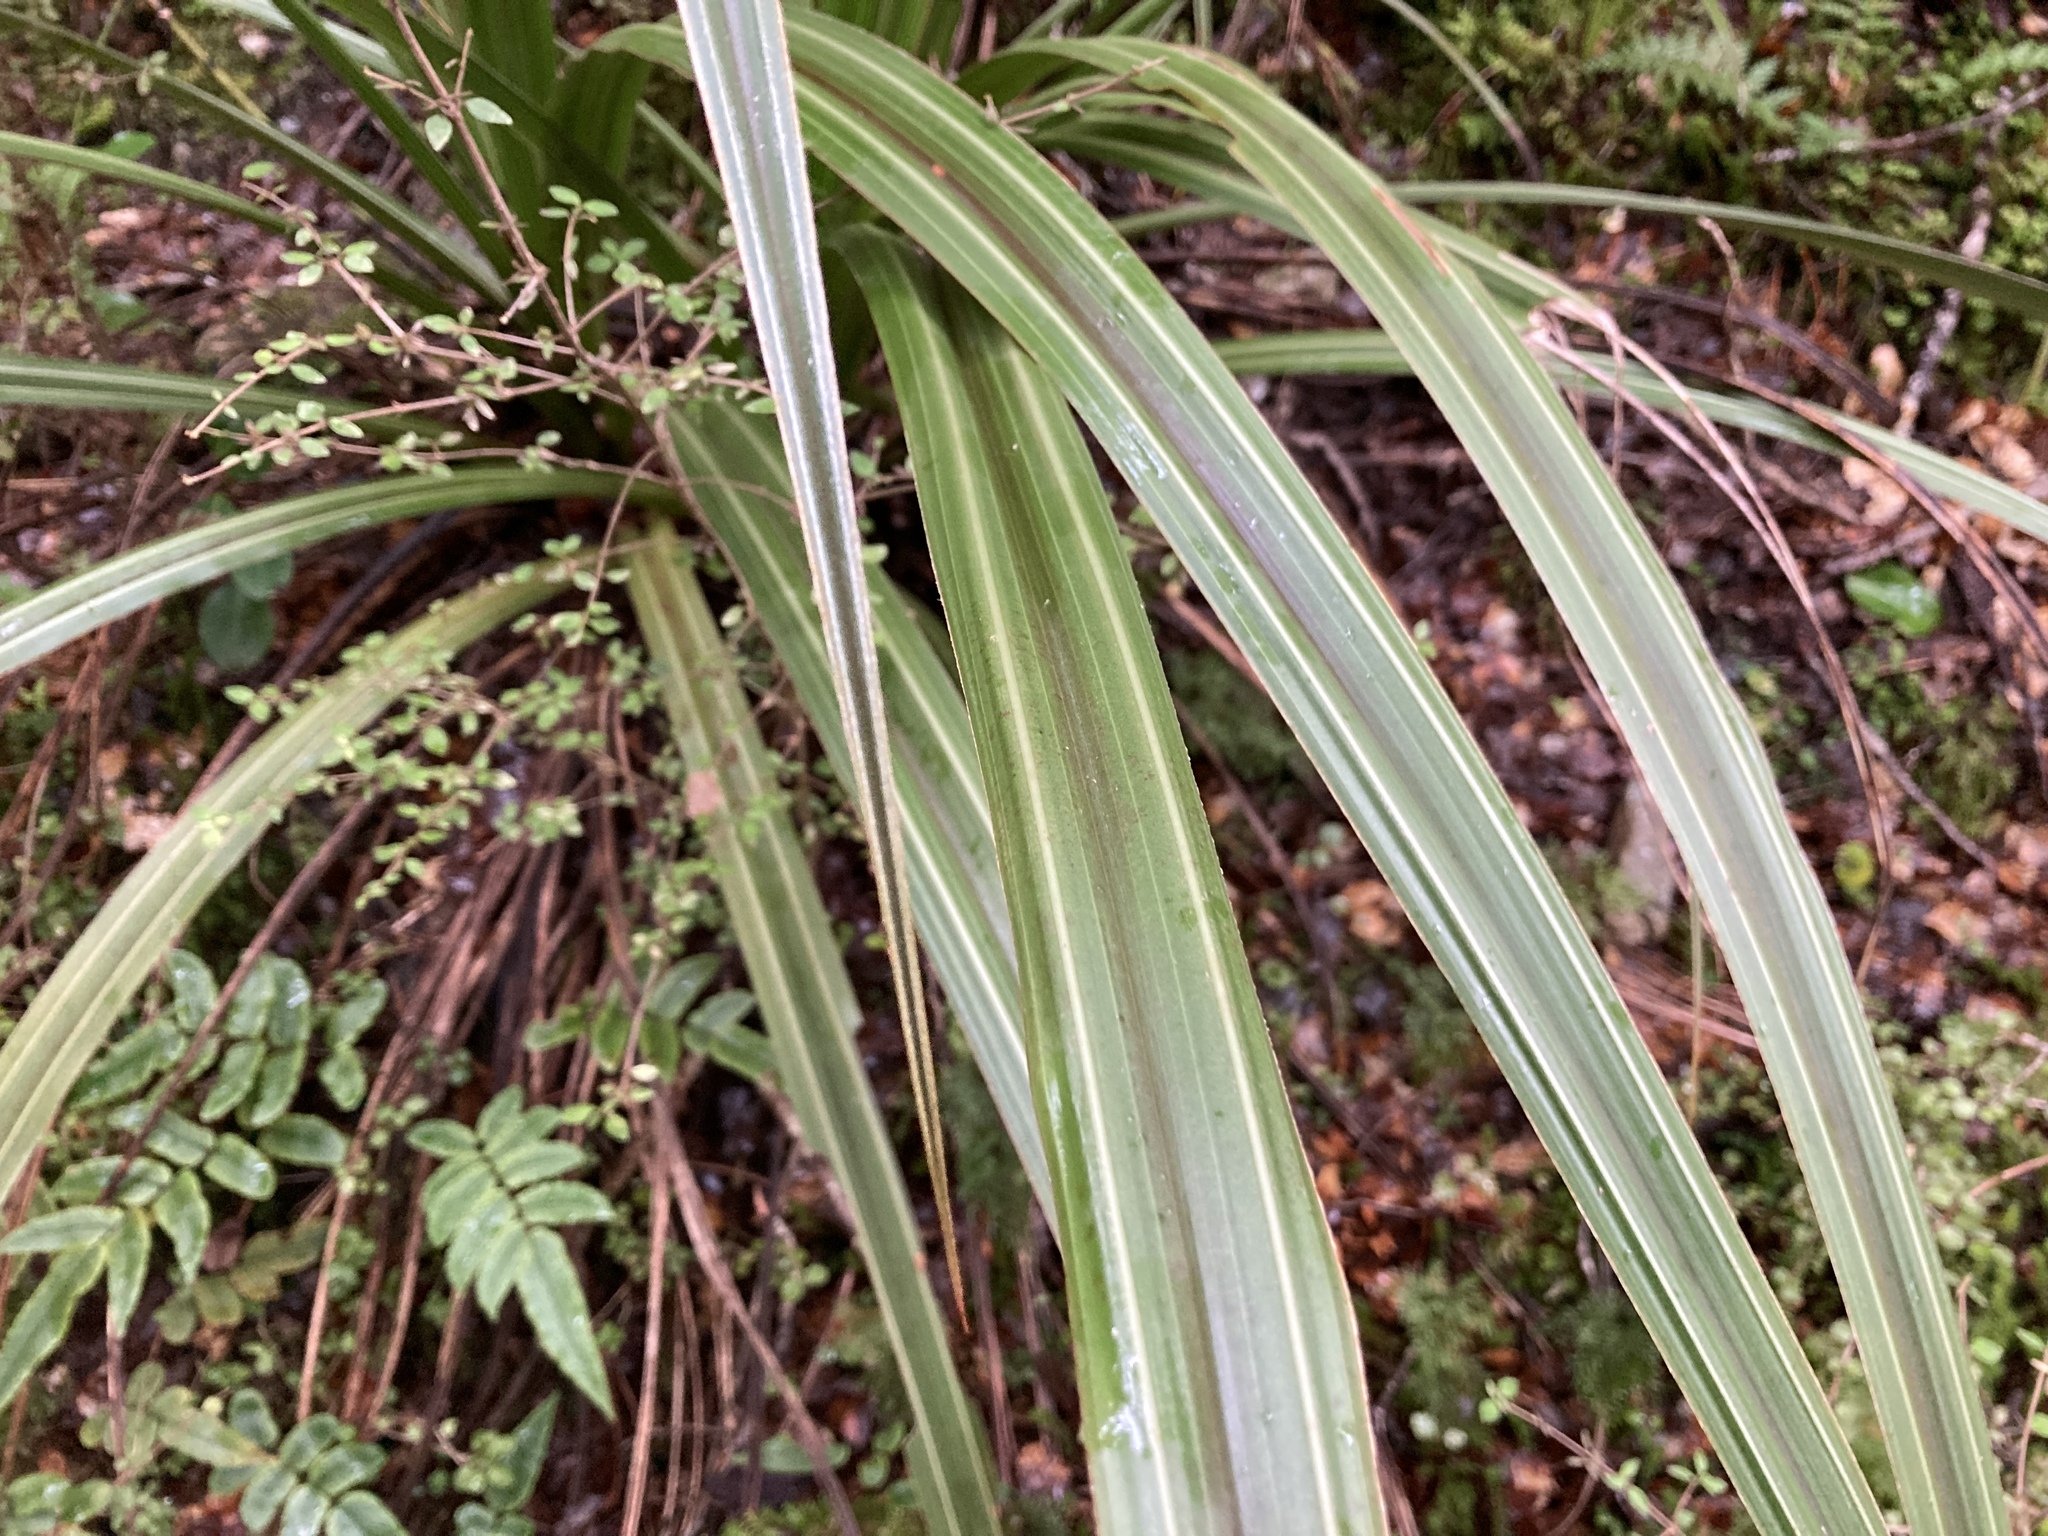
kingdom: Plantae
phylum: Tracheophyta
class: Liliopsida
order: Asparagales
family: Asteliaceae
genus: Astelia
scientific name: Astelia fragrans
